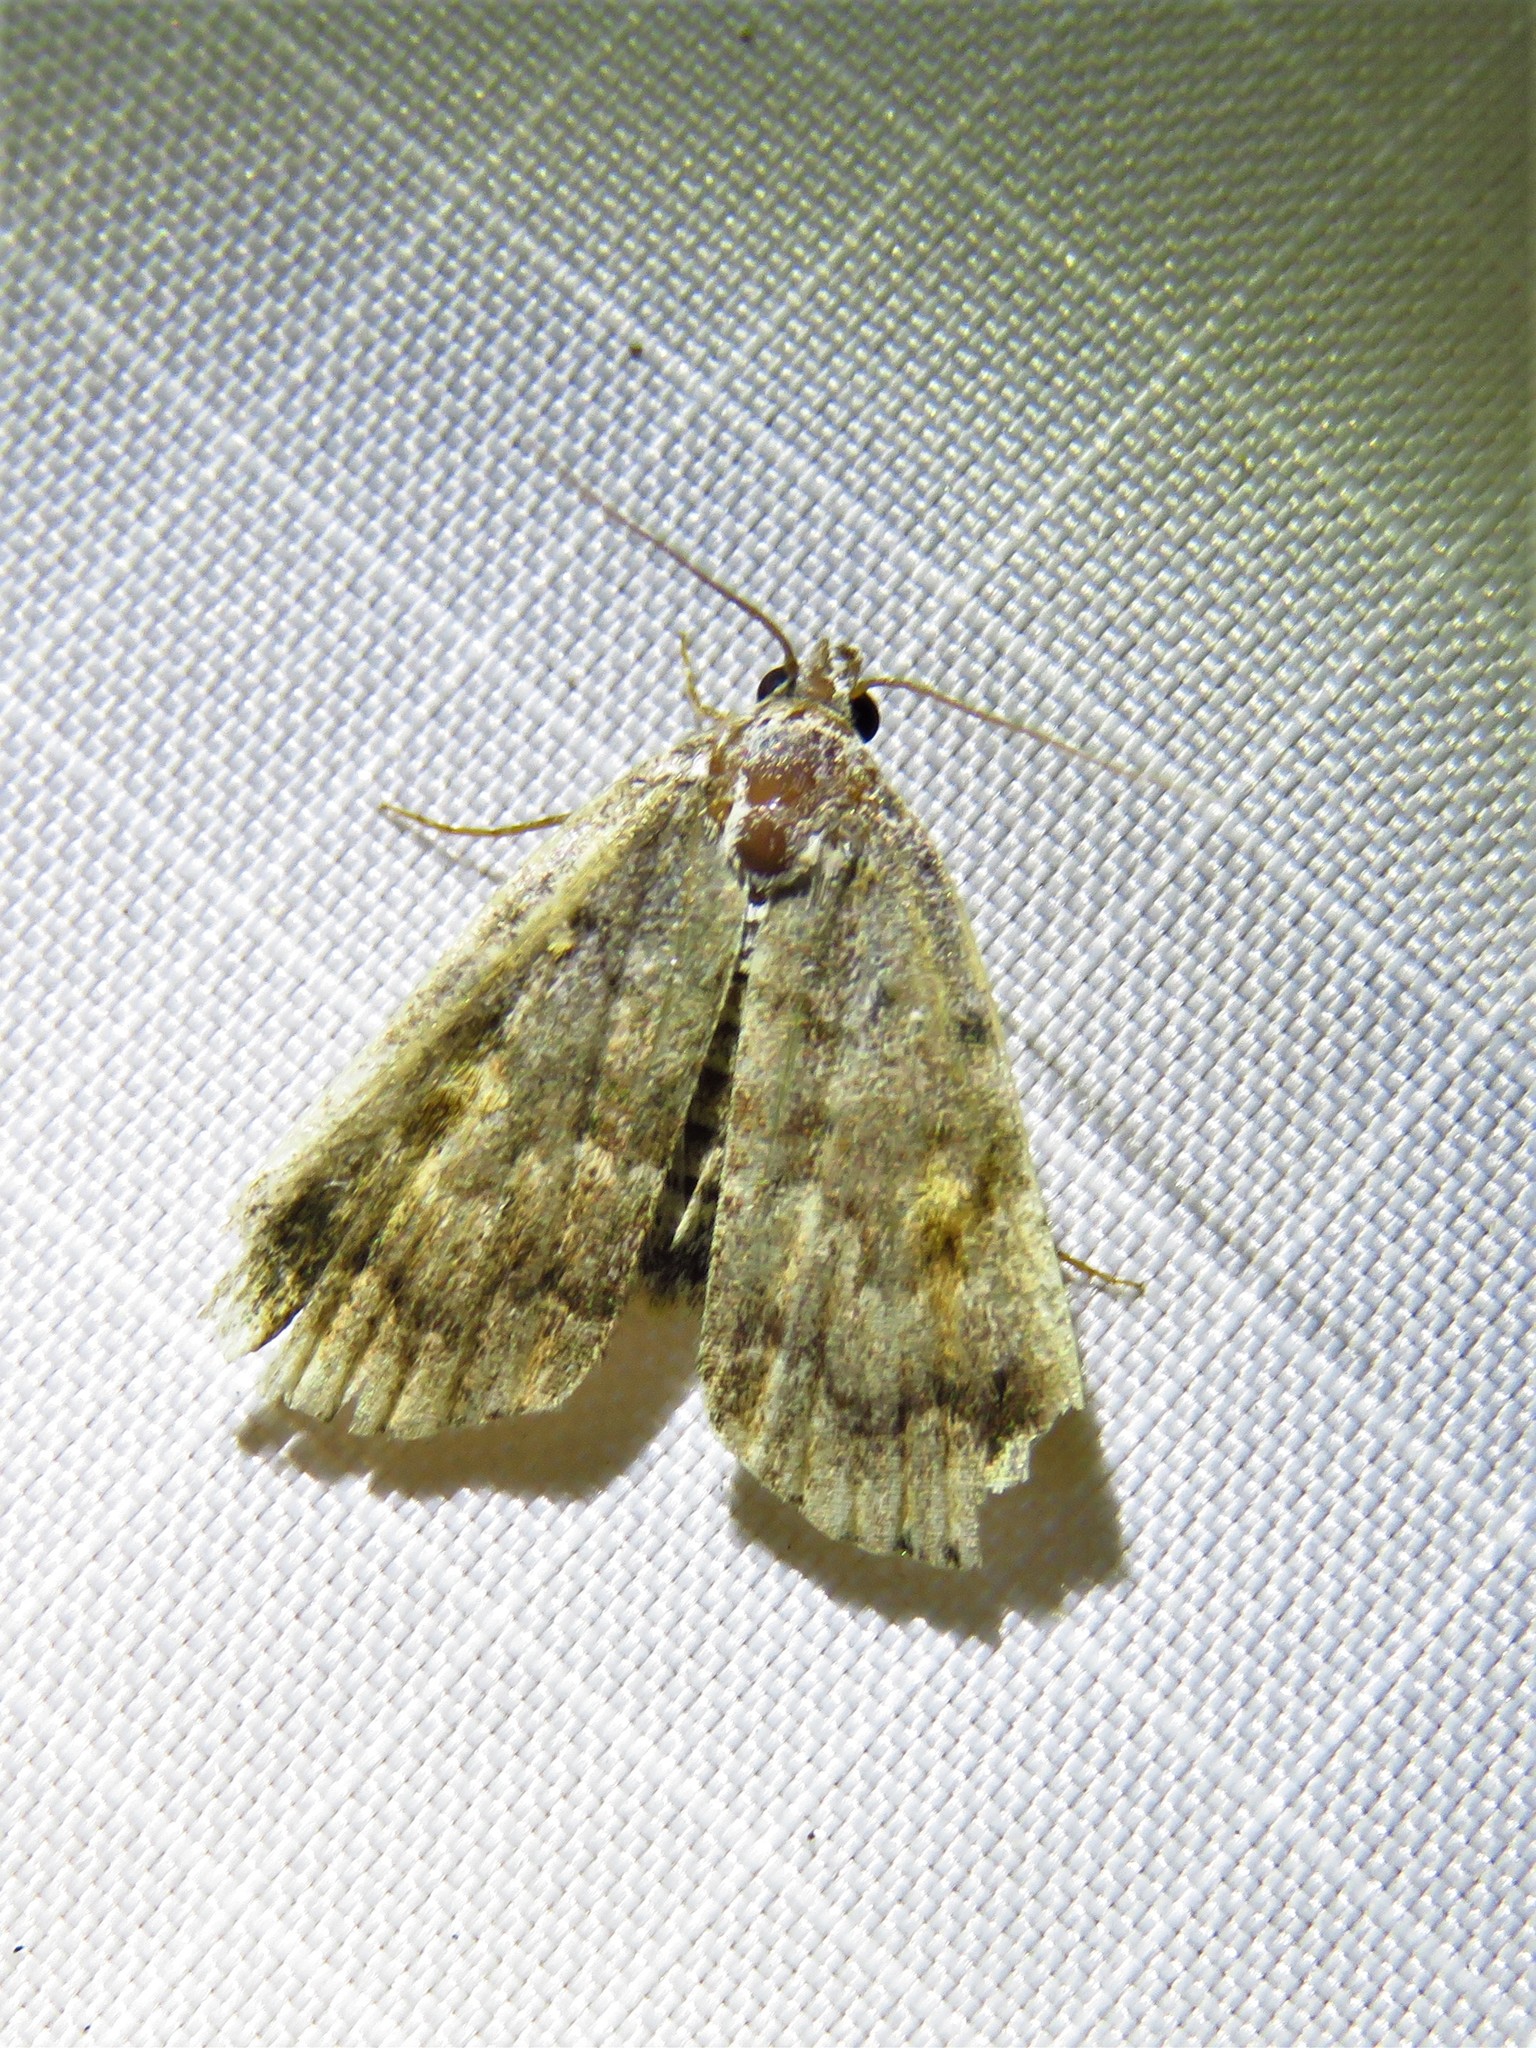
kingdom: Animalia
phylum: Arthropoda
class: Insecta
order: Lepidoptera
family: Erebidae
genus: Idia
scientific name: Idia aemula
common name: Common idia moth
